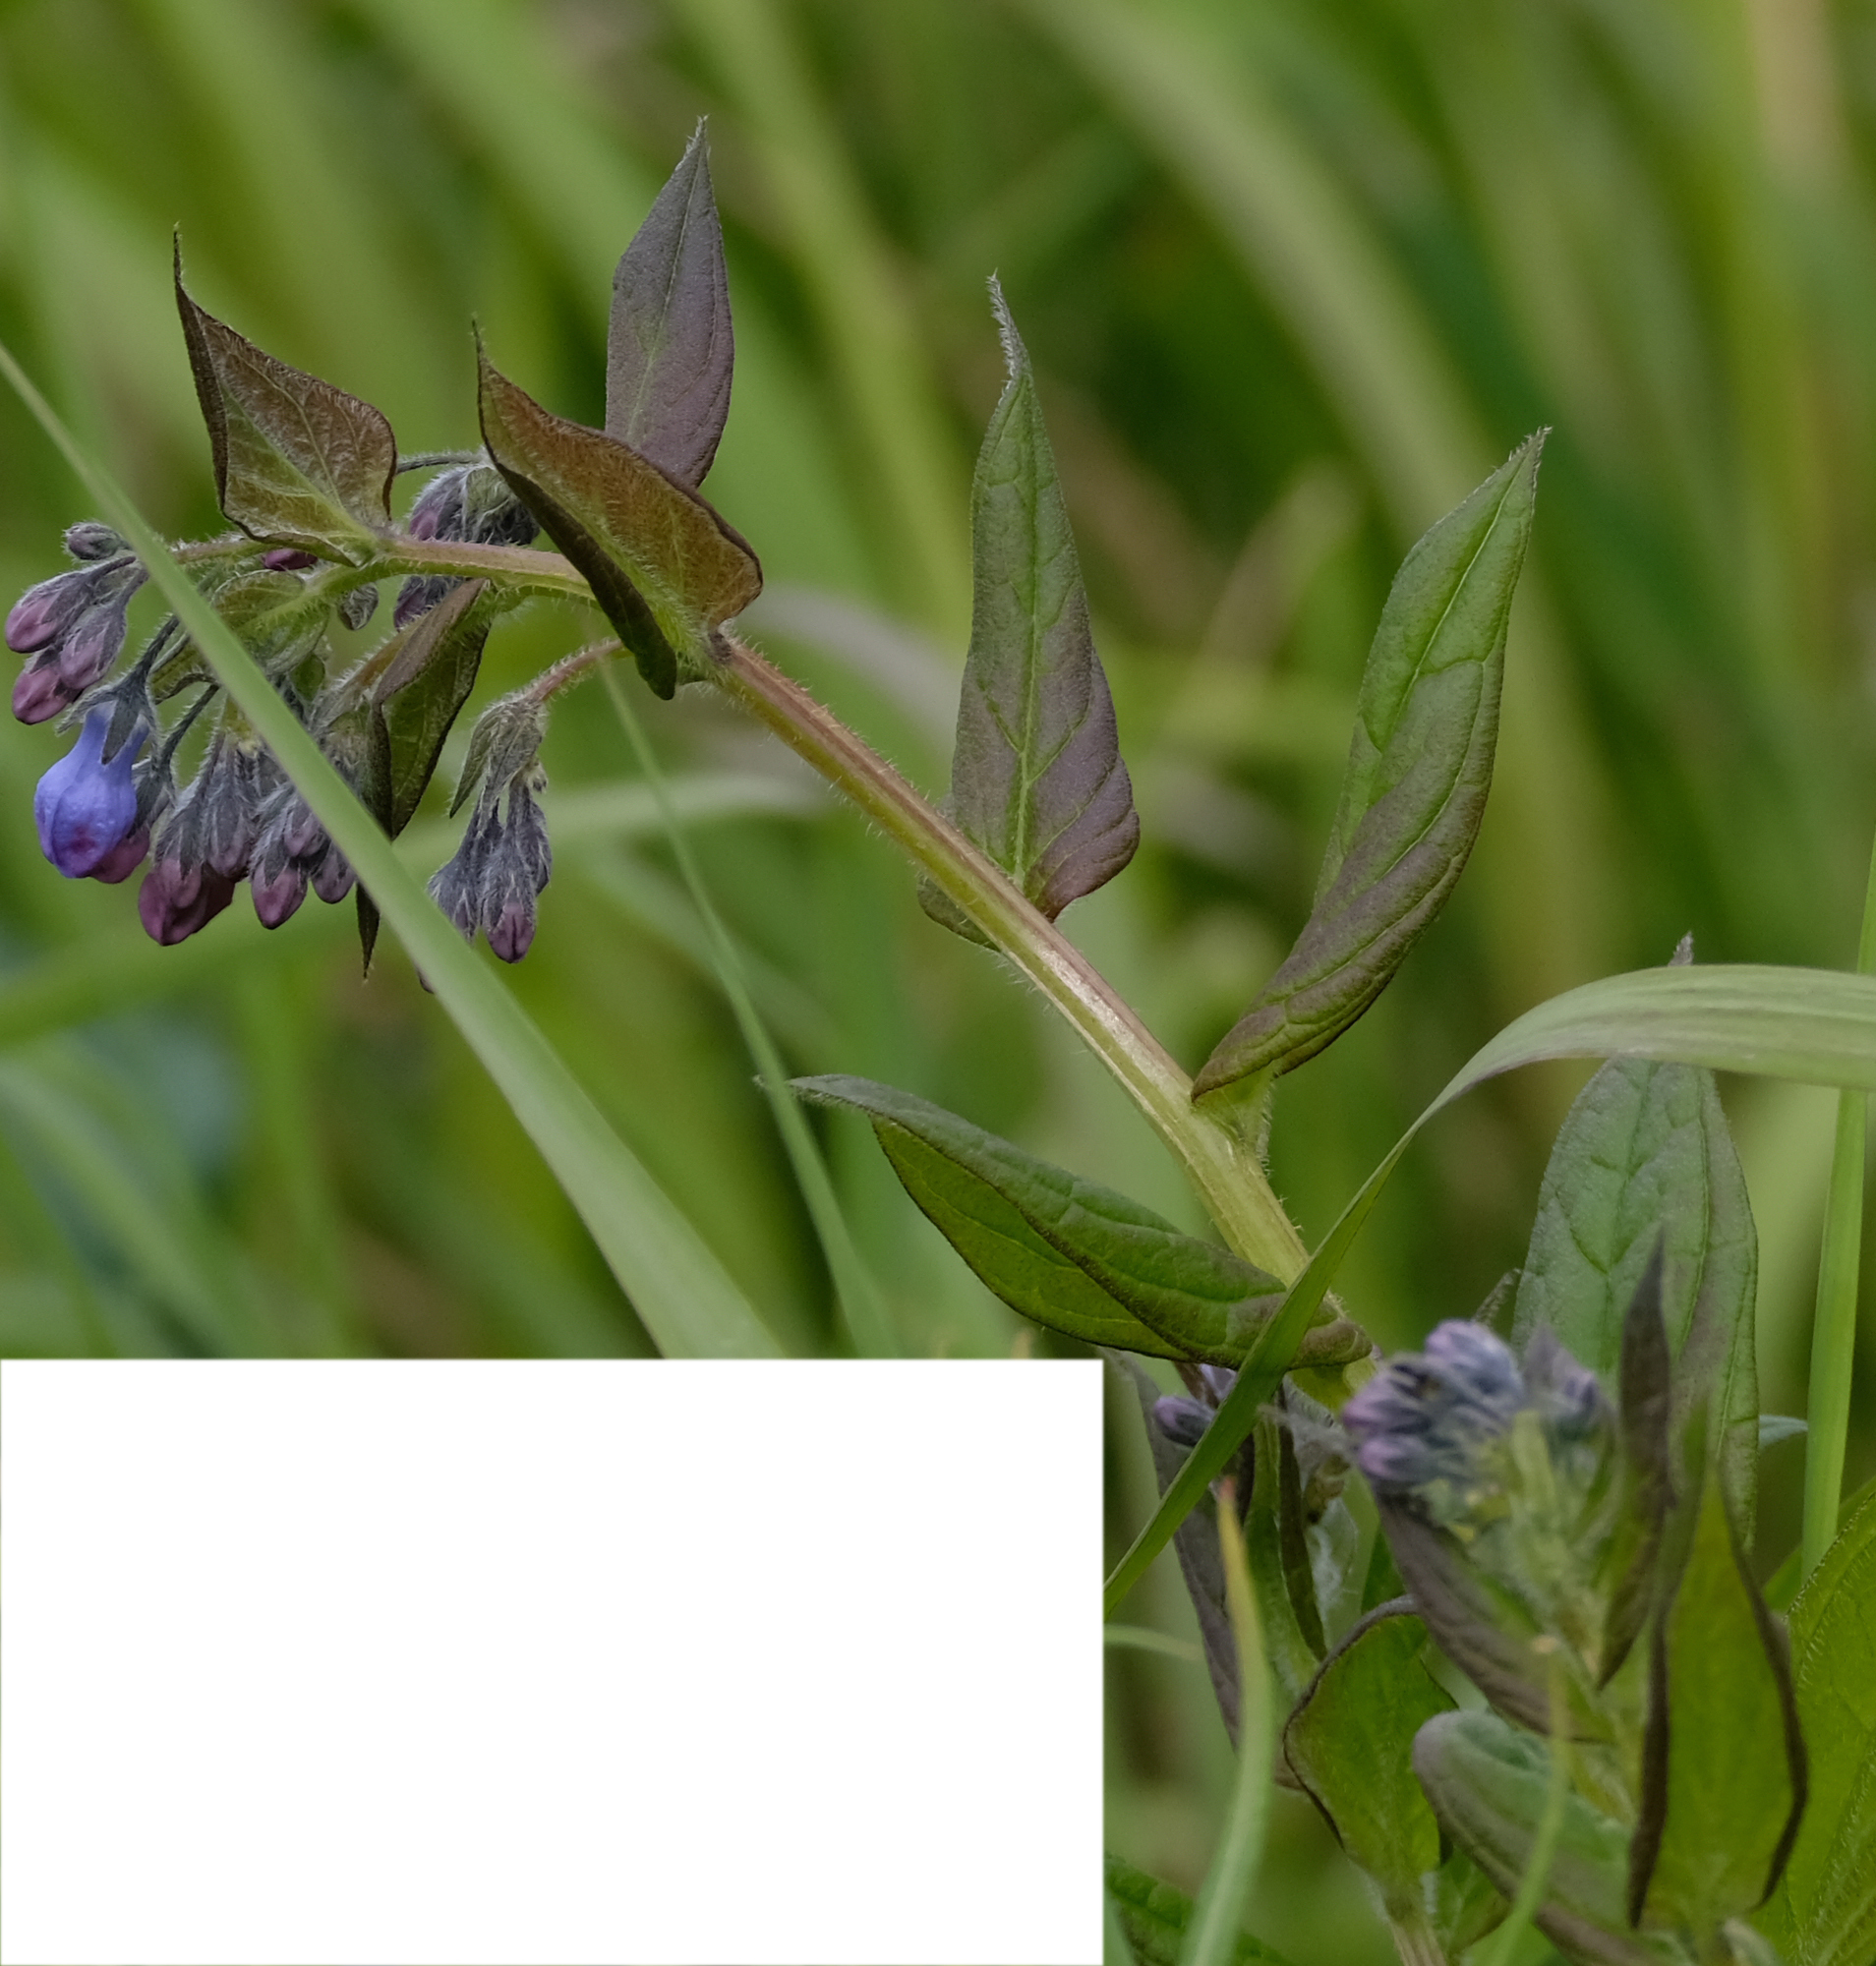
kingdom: Plantae
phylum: Tracheophyta
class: Magnoliopsida
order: Boraginales
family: Boraginaceae
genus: Mertensia
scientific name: Mertensia paniculata
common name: Panicled bluebells
